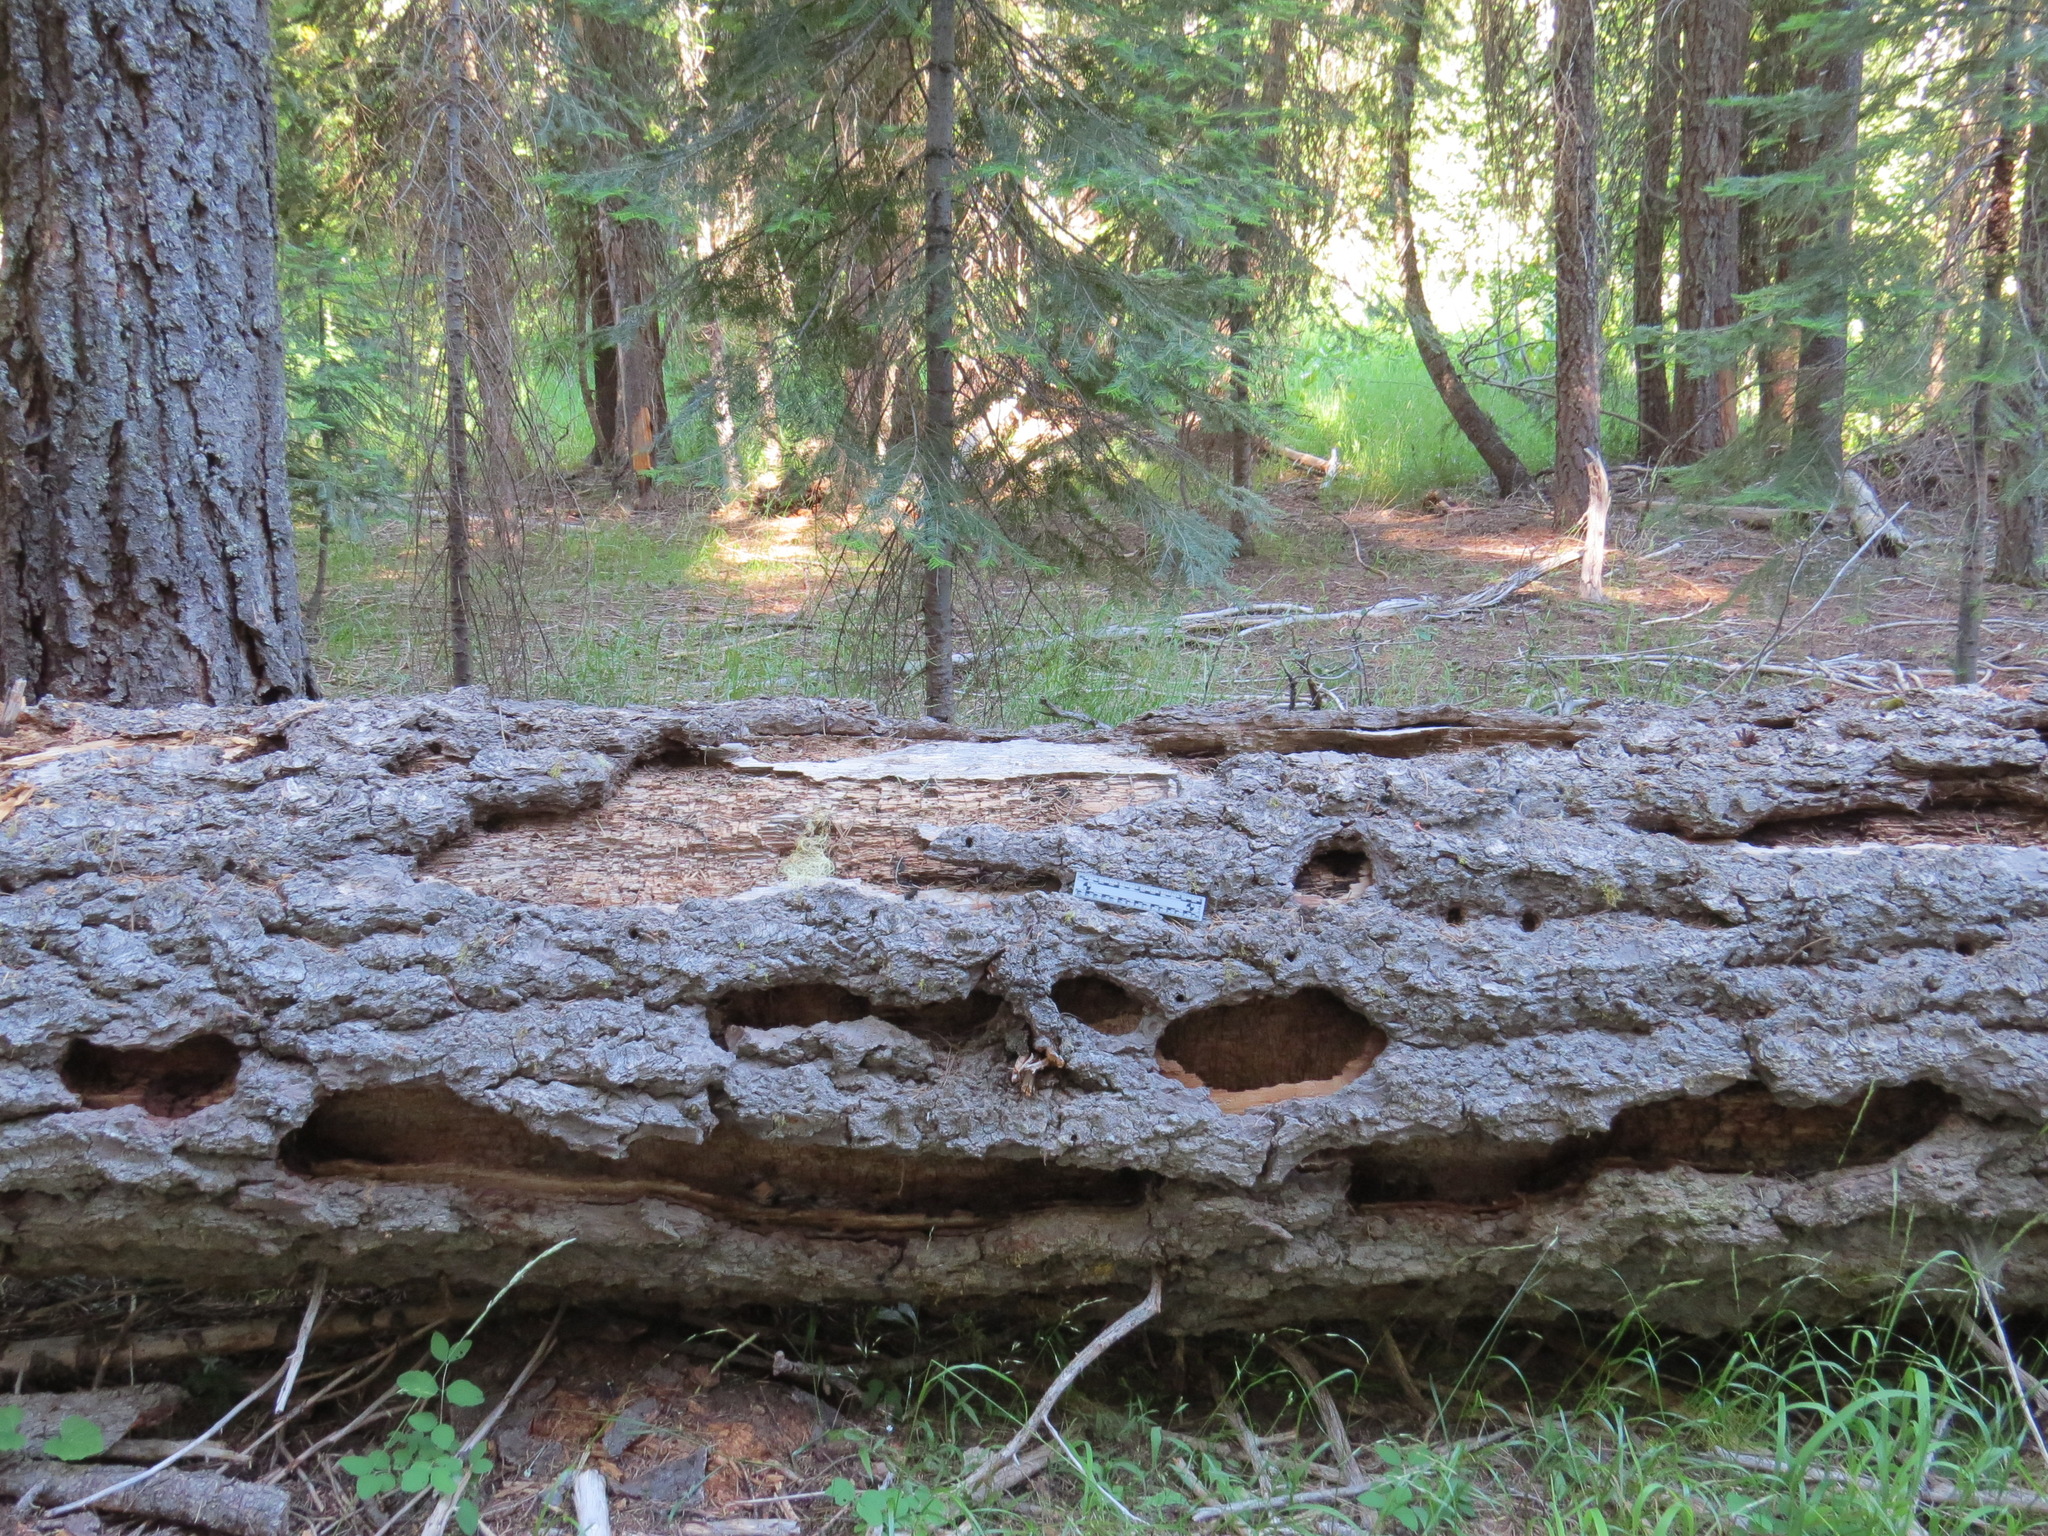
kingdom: Animalia
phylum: Chordata
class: Aves
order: Piciformes
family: Picidae
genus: Dryocopus
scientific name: Dryocopus pileatus
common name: Pileated woodpecker
